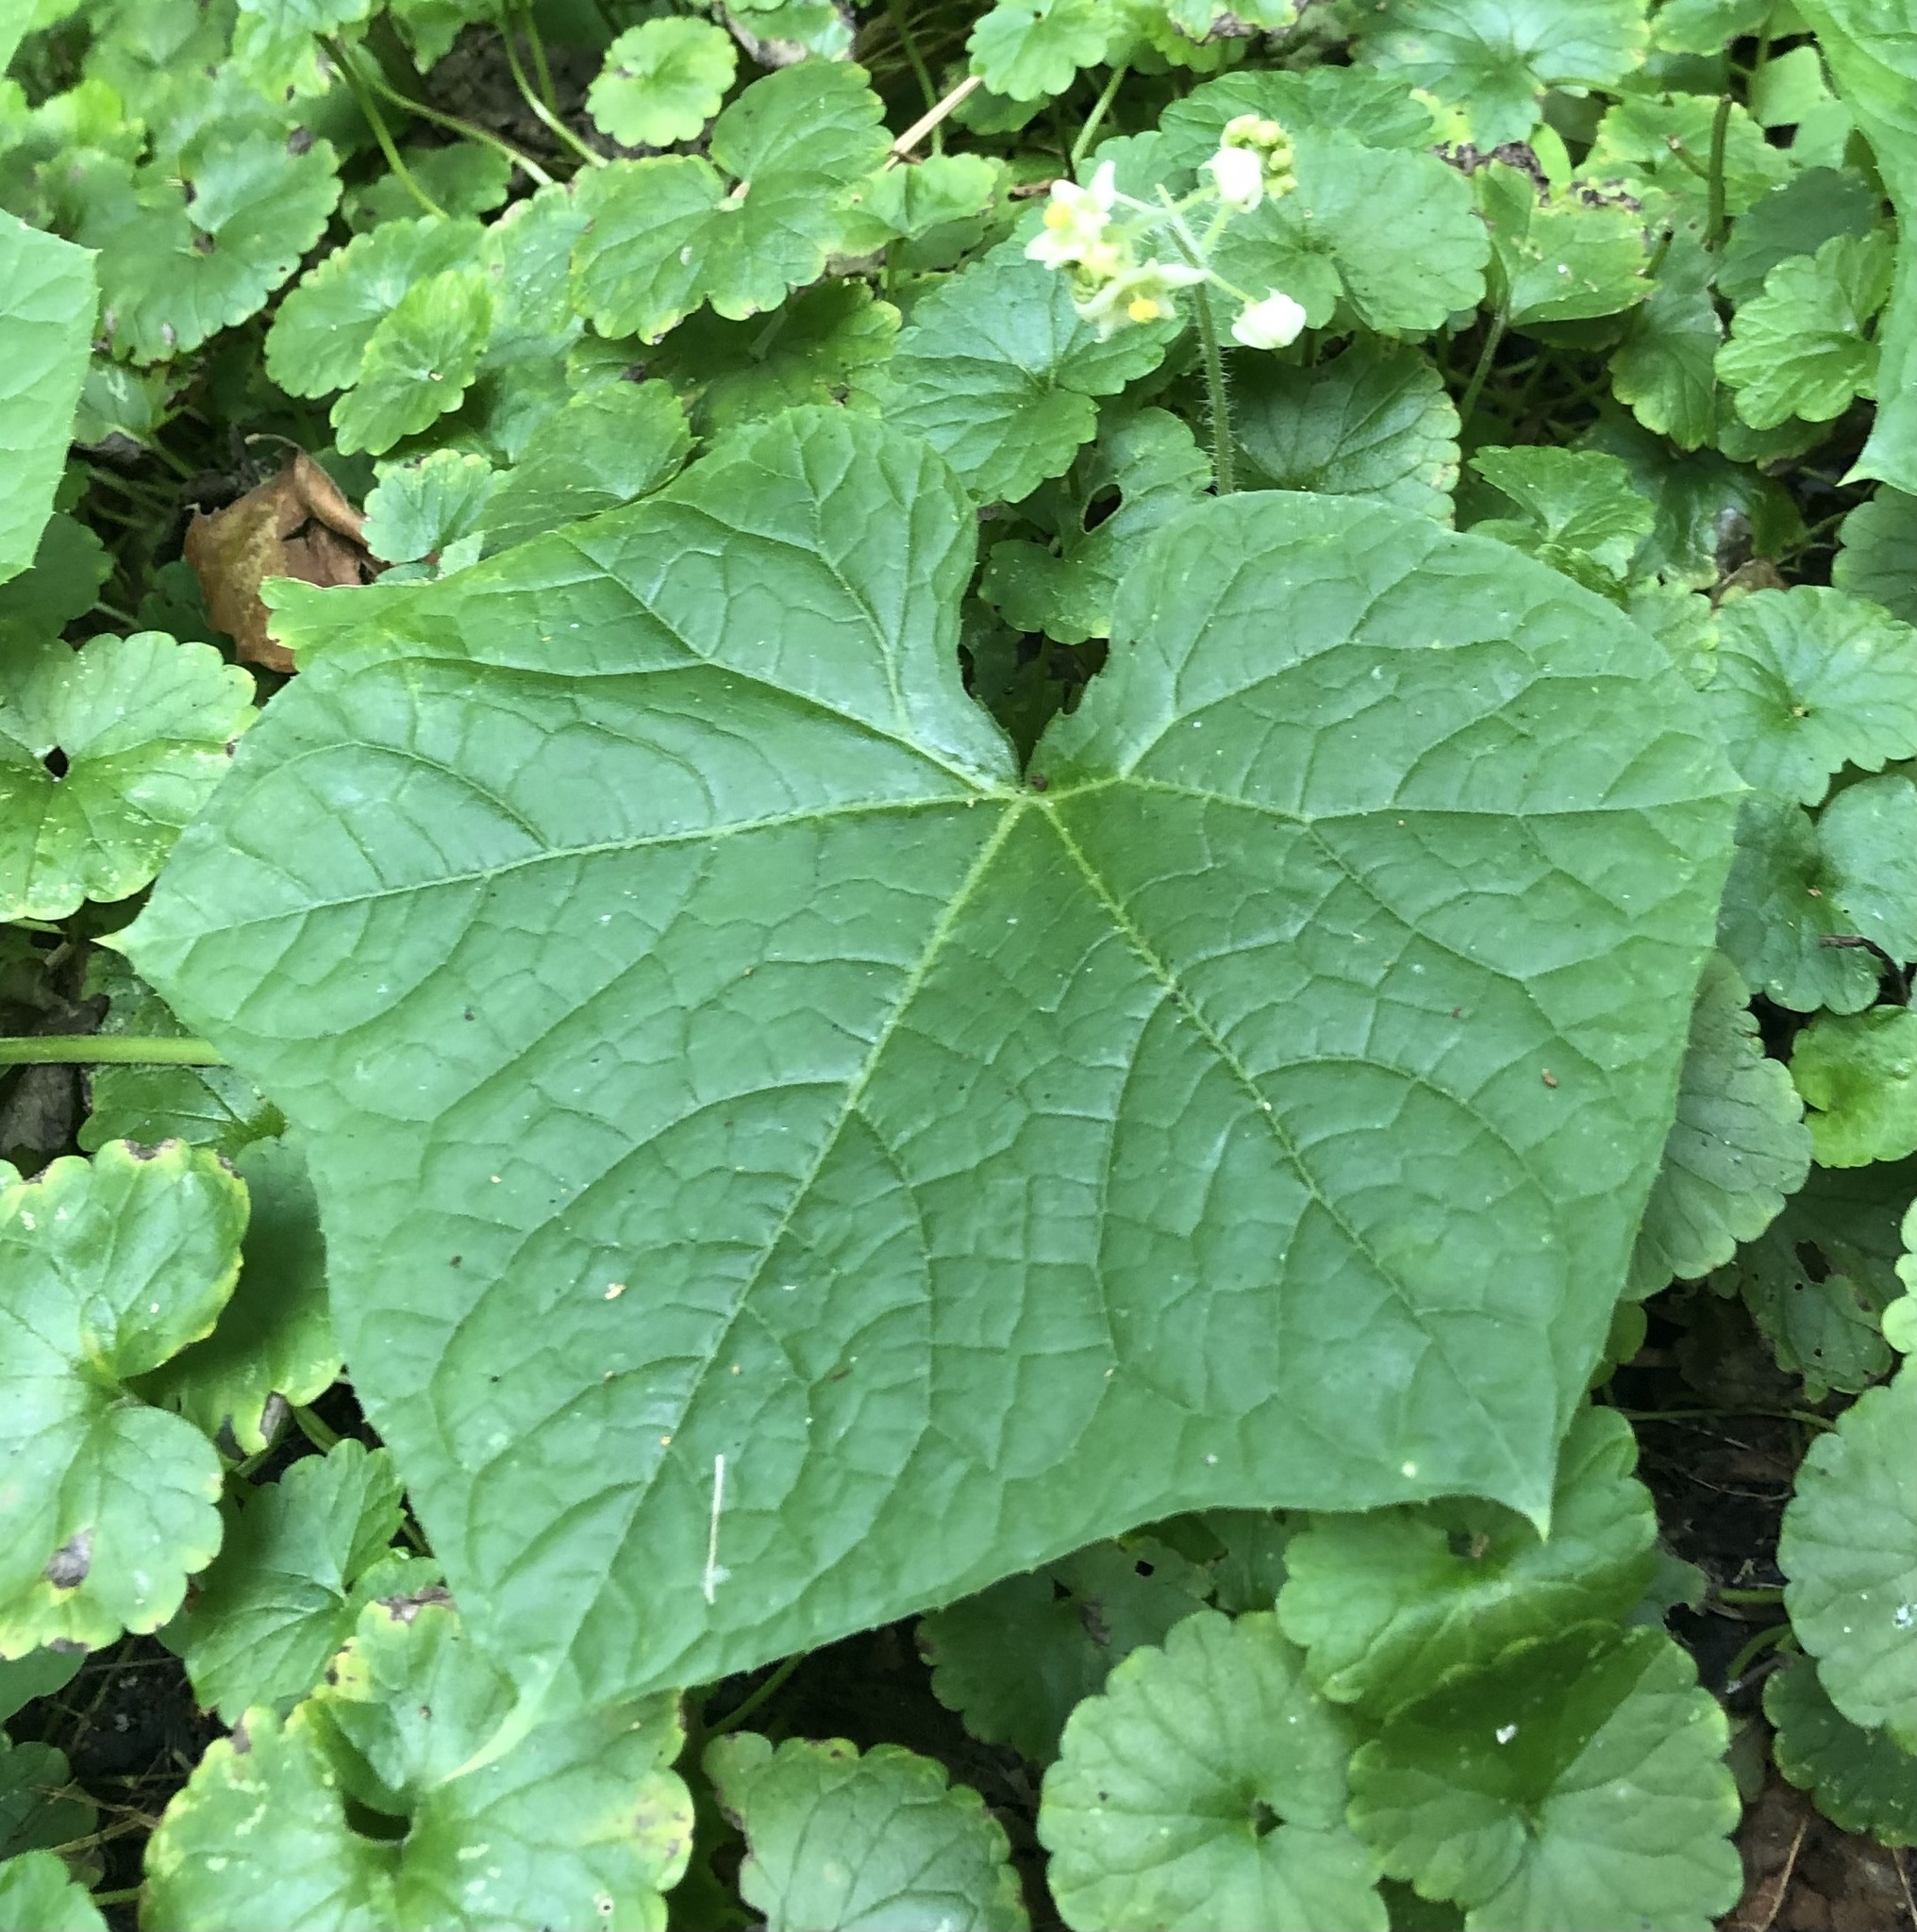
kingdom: Plantae
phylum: Tracheophyta
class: Magnoliopsida
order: Cucurbitales
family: Cucurbitaceae
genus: Sicyos
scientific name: Sicyos angulatus
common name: Angled burr cucumber
